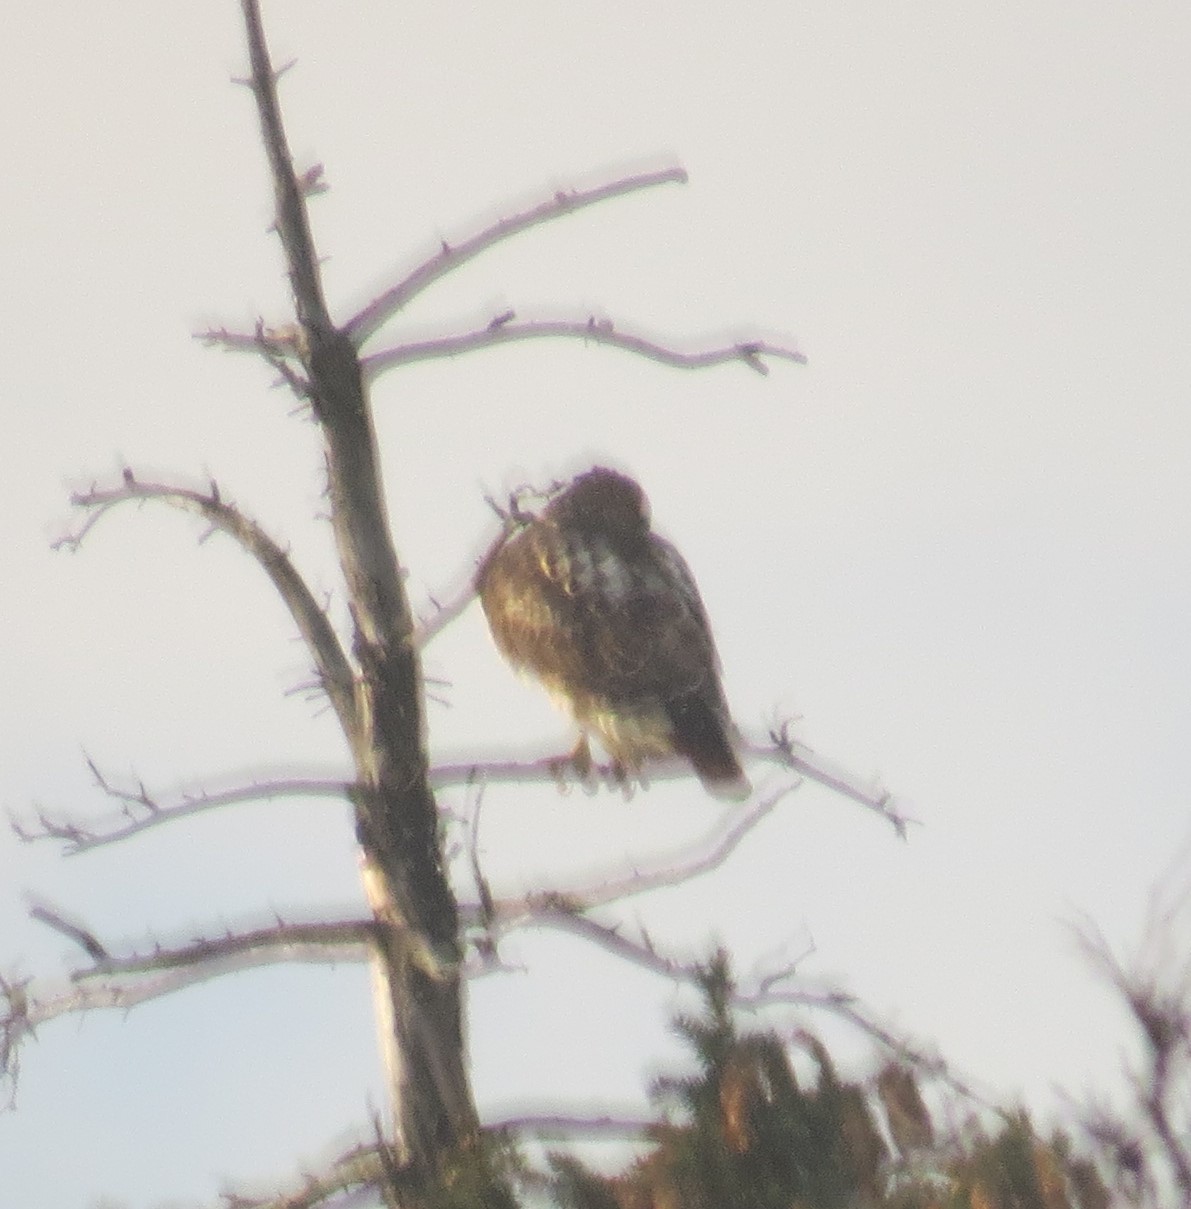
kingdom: Animalia
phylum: Chordata
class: Aves
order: Accipitriformes
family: Accipitridae
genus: Buteo
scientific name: Buteo jamaicensis
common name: Red-tailed hawk
